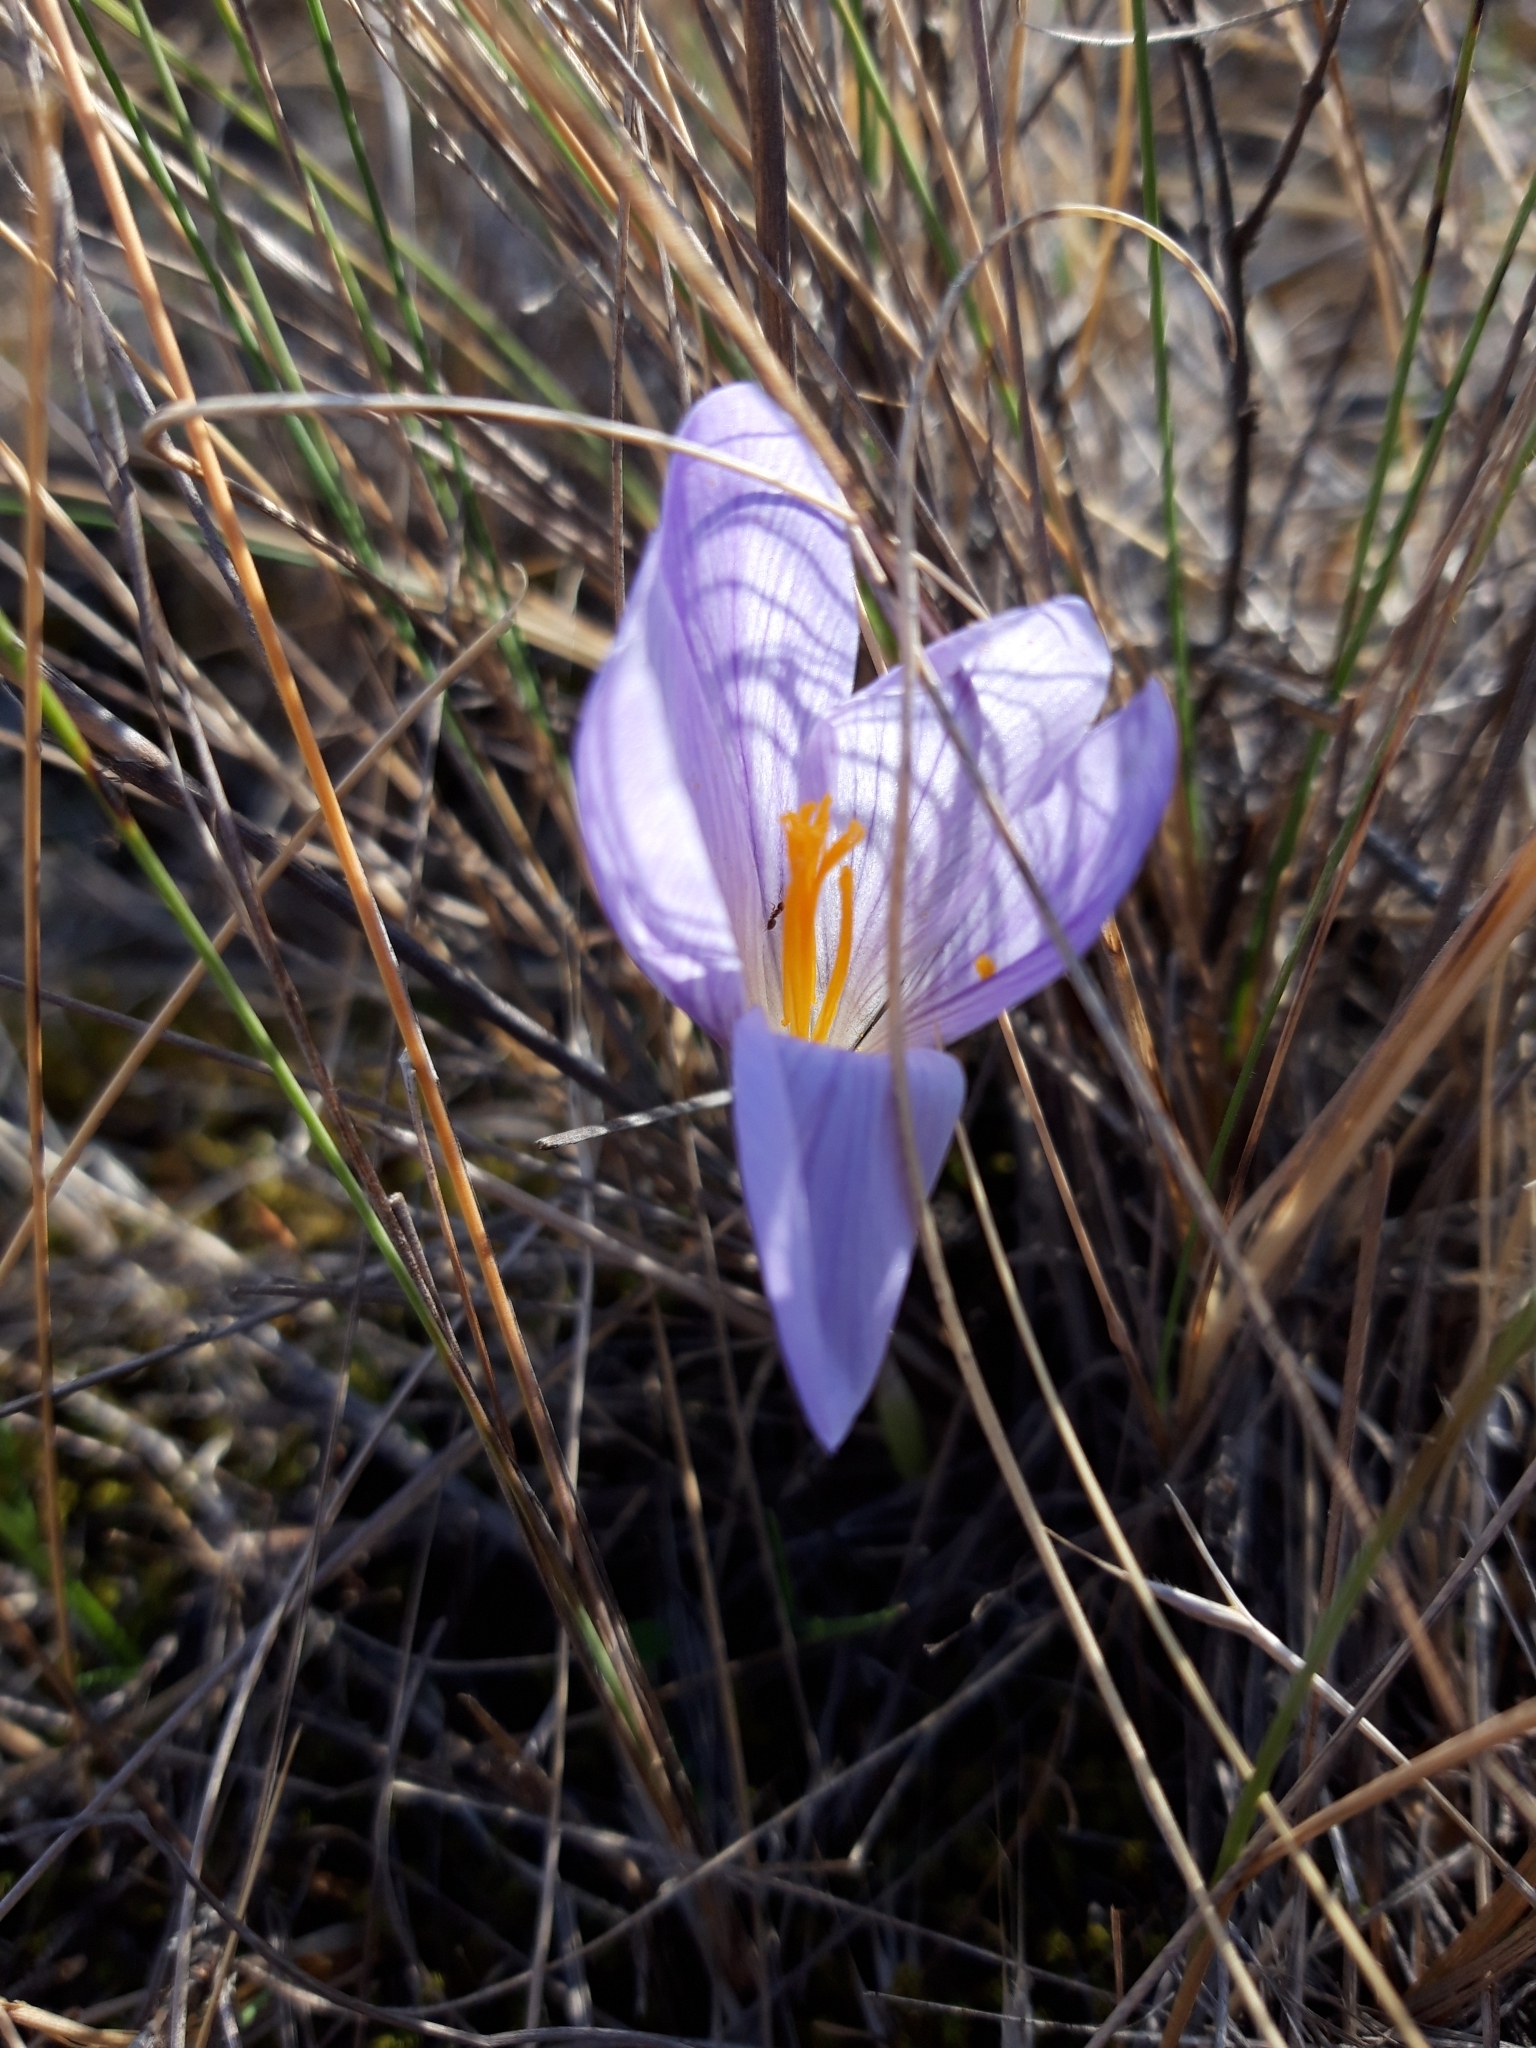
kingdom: Plantae
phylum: Tracheophyta
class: Liliopsida
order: Asparagales
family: Iridaceae
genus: Crocus
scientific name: Crocus serotinus
